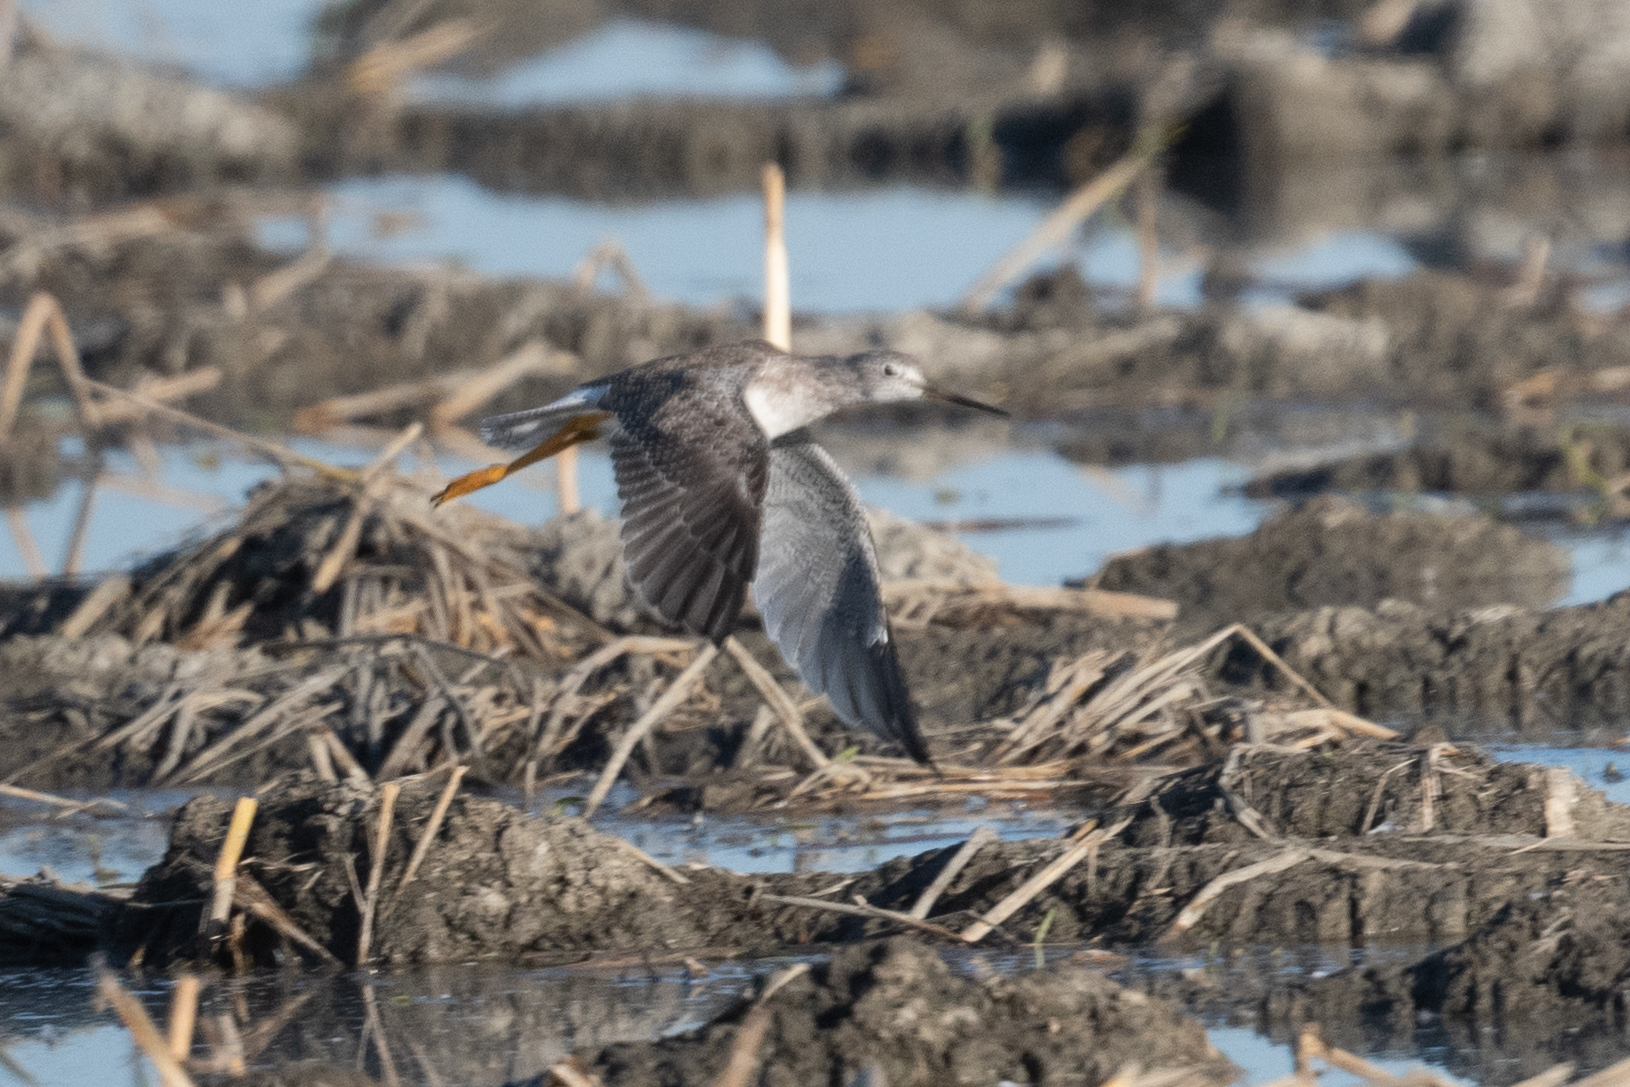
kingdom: Animalia
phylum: Chordata
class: Aves
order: Charadriiformes
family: Scolopacidae
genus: Tringa
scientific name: Tringa melanoleuca
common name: Greater yellowlegs
